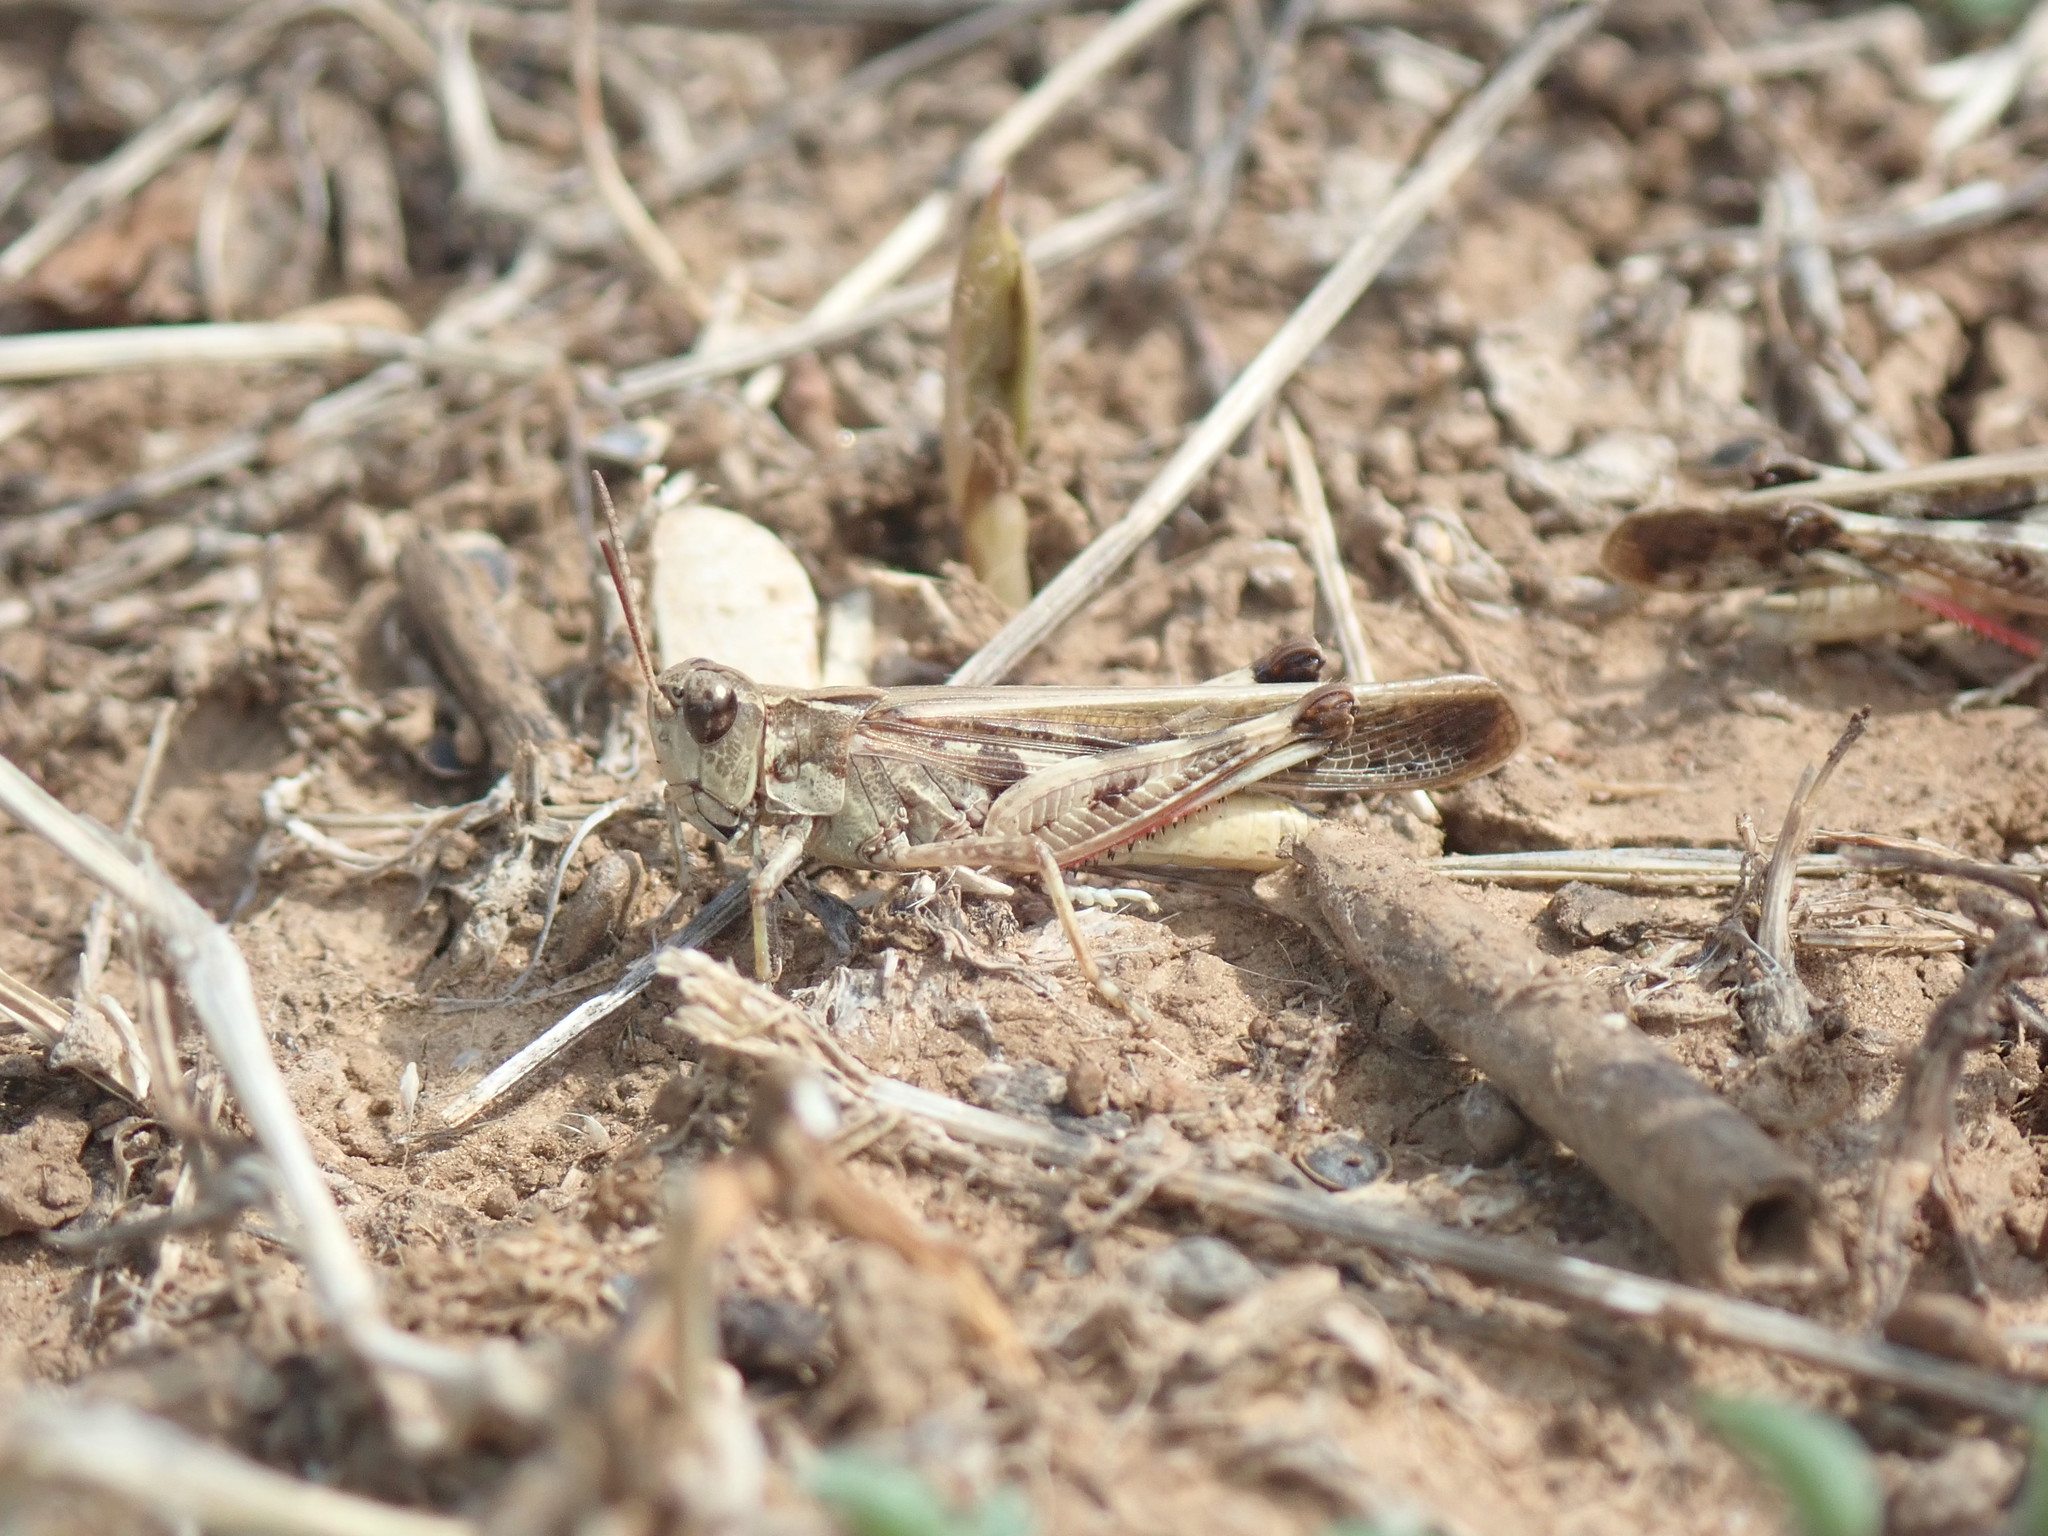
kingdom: Animalia
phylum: Arthropoda
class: Insecta
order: Orthoptera
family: Acrididae
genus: Aiolopus
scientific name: Aiolopus thalassinus
